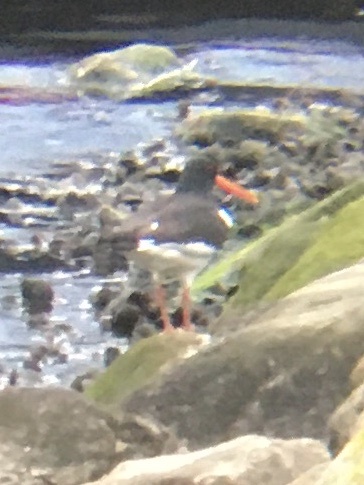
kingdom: Animalia
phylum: Chordata
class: Aves
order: Charadriiformes
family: Haematopodidae
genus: Haematopus
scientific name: Haematopus ostralegus
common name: Eurasian oystercatcher
